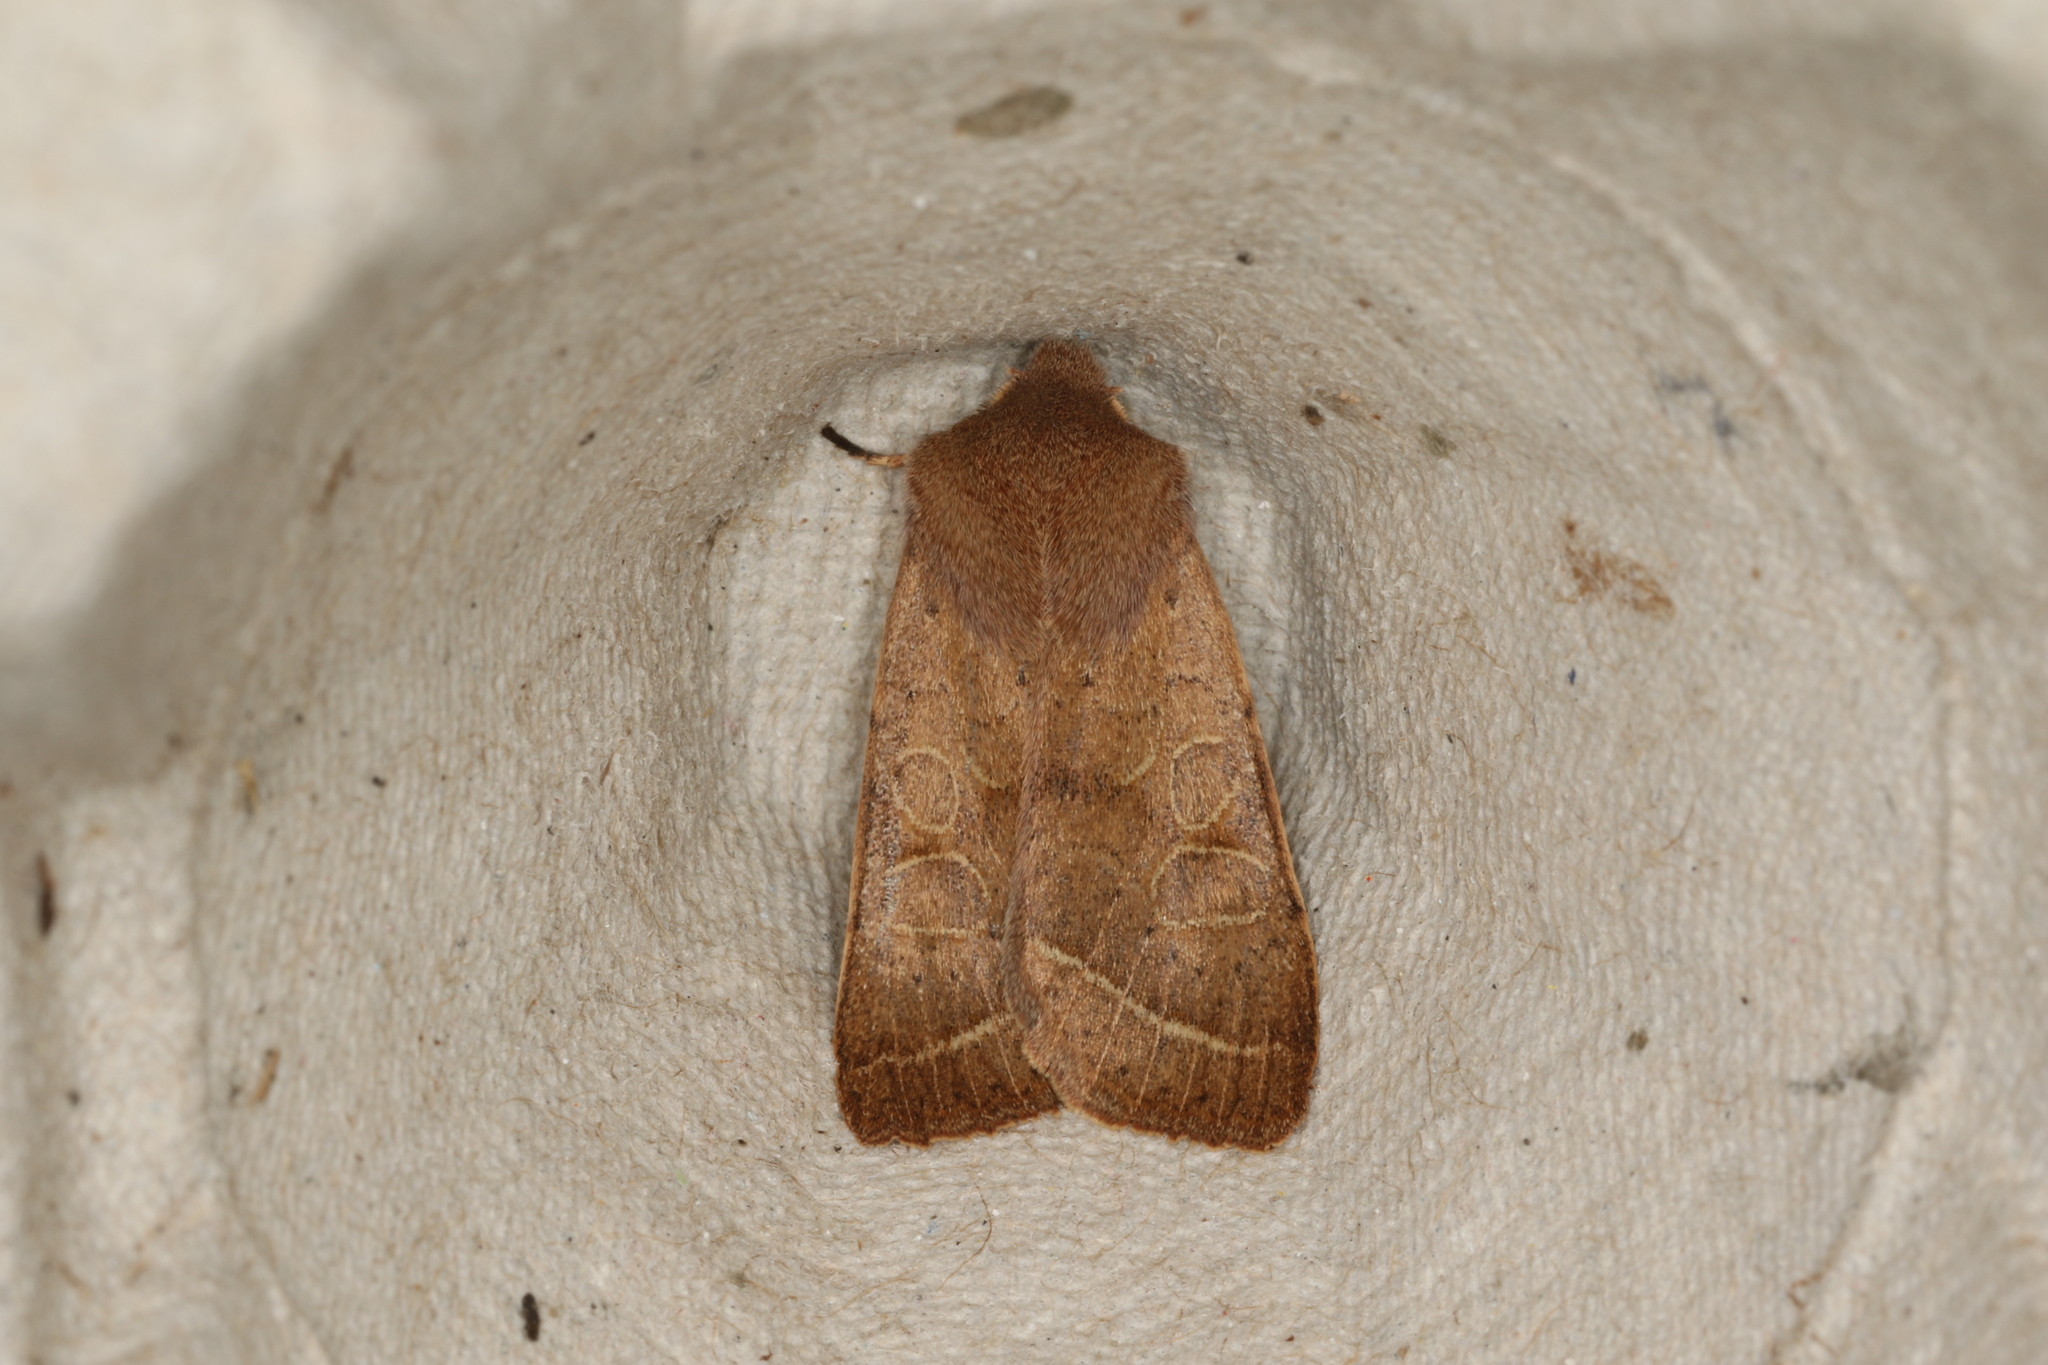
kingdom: Animalia
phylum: Arthropoda
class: Insecta
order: Lepidoptera
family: Noctuidae
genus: Orthosia
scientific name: Orthosia cerasi
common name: Common quaker
